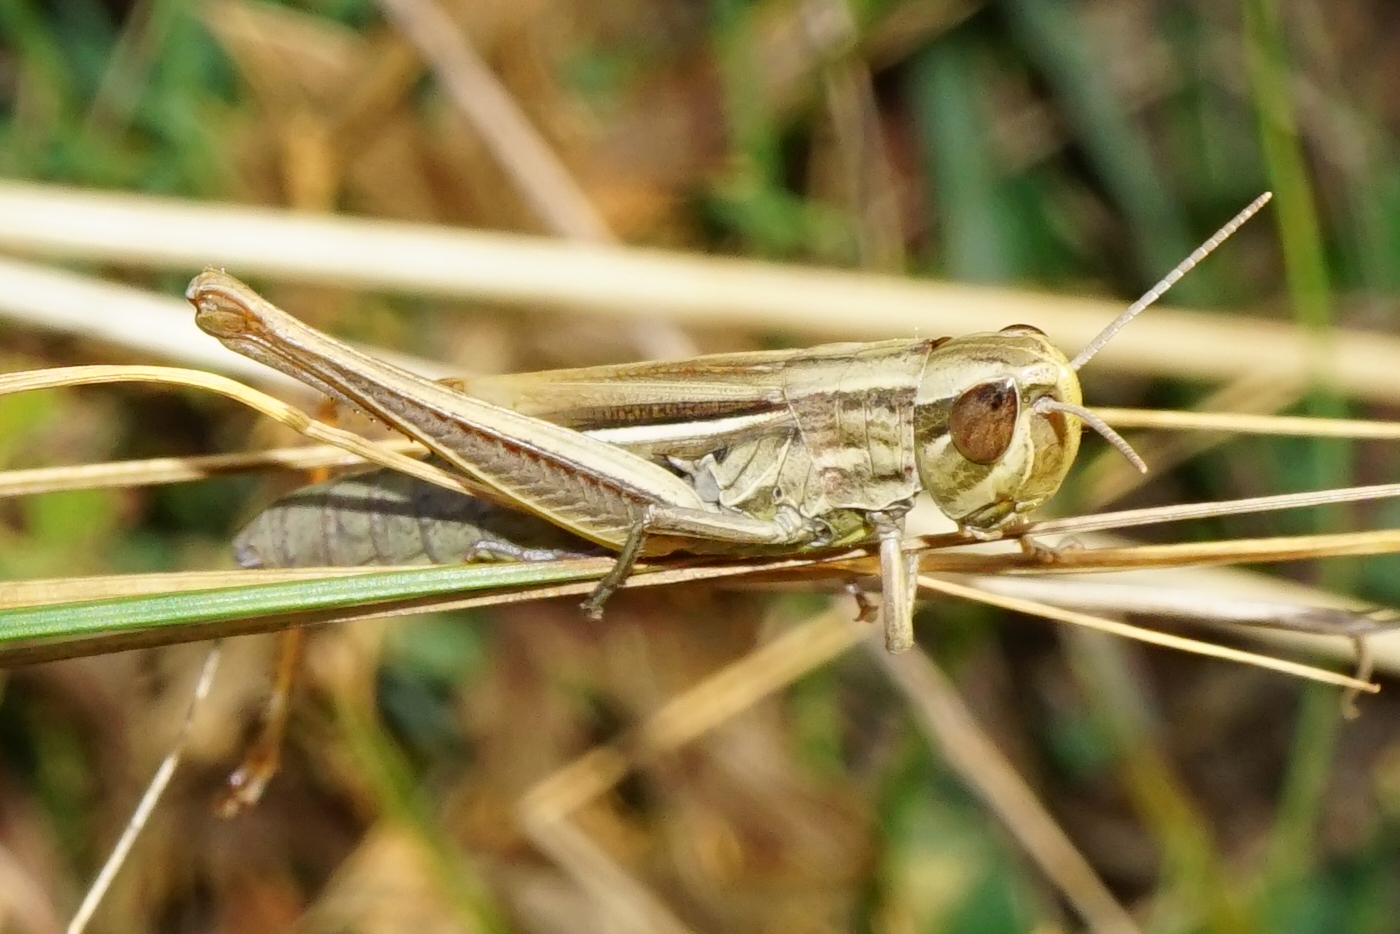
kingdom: Animalia
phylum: Arthropoda
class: Insecta
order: Orthoptera
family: Acrididae
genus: Euchorthippus
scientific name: Euchorthippus declivus
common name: Common straw grasshopper
